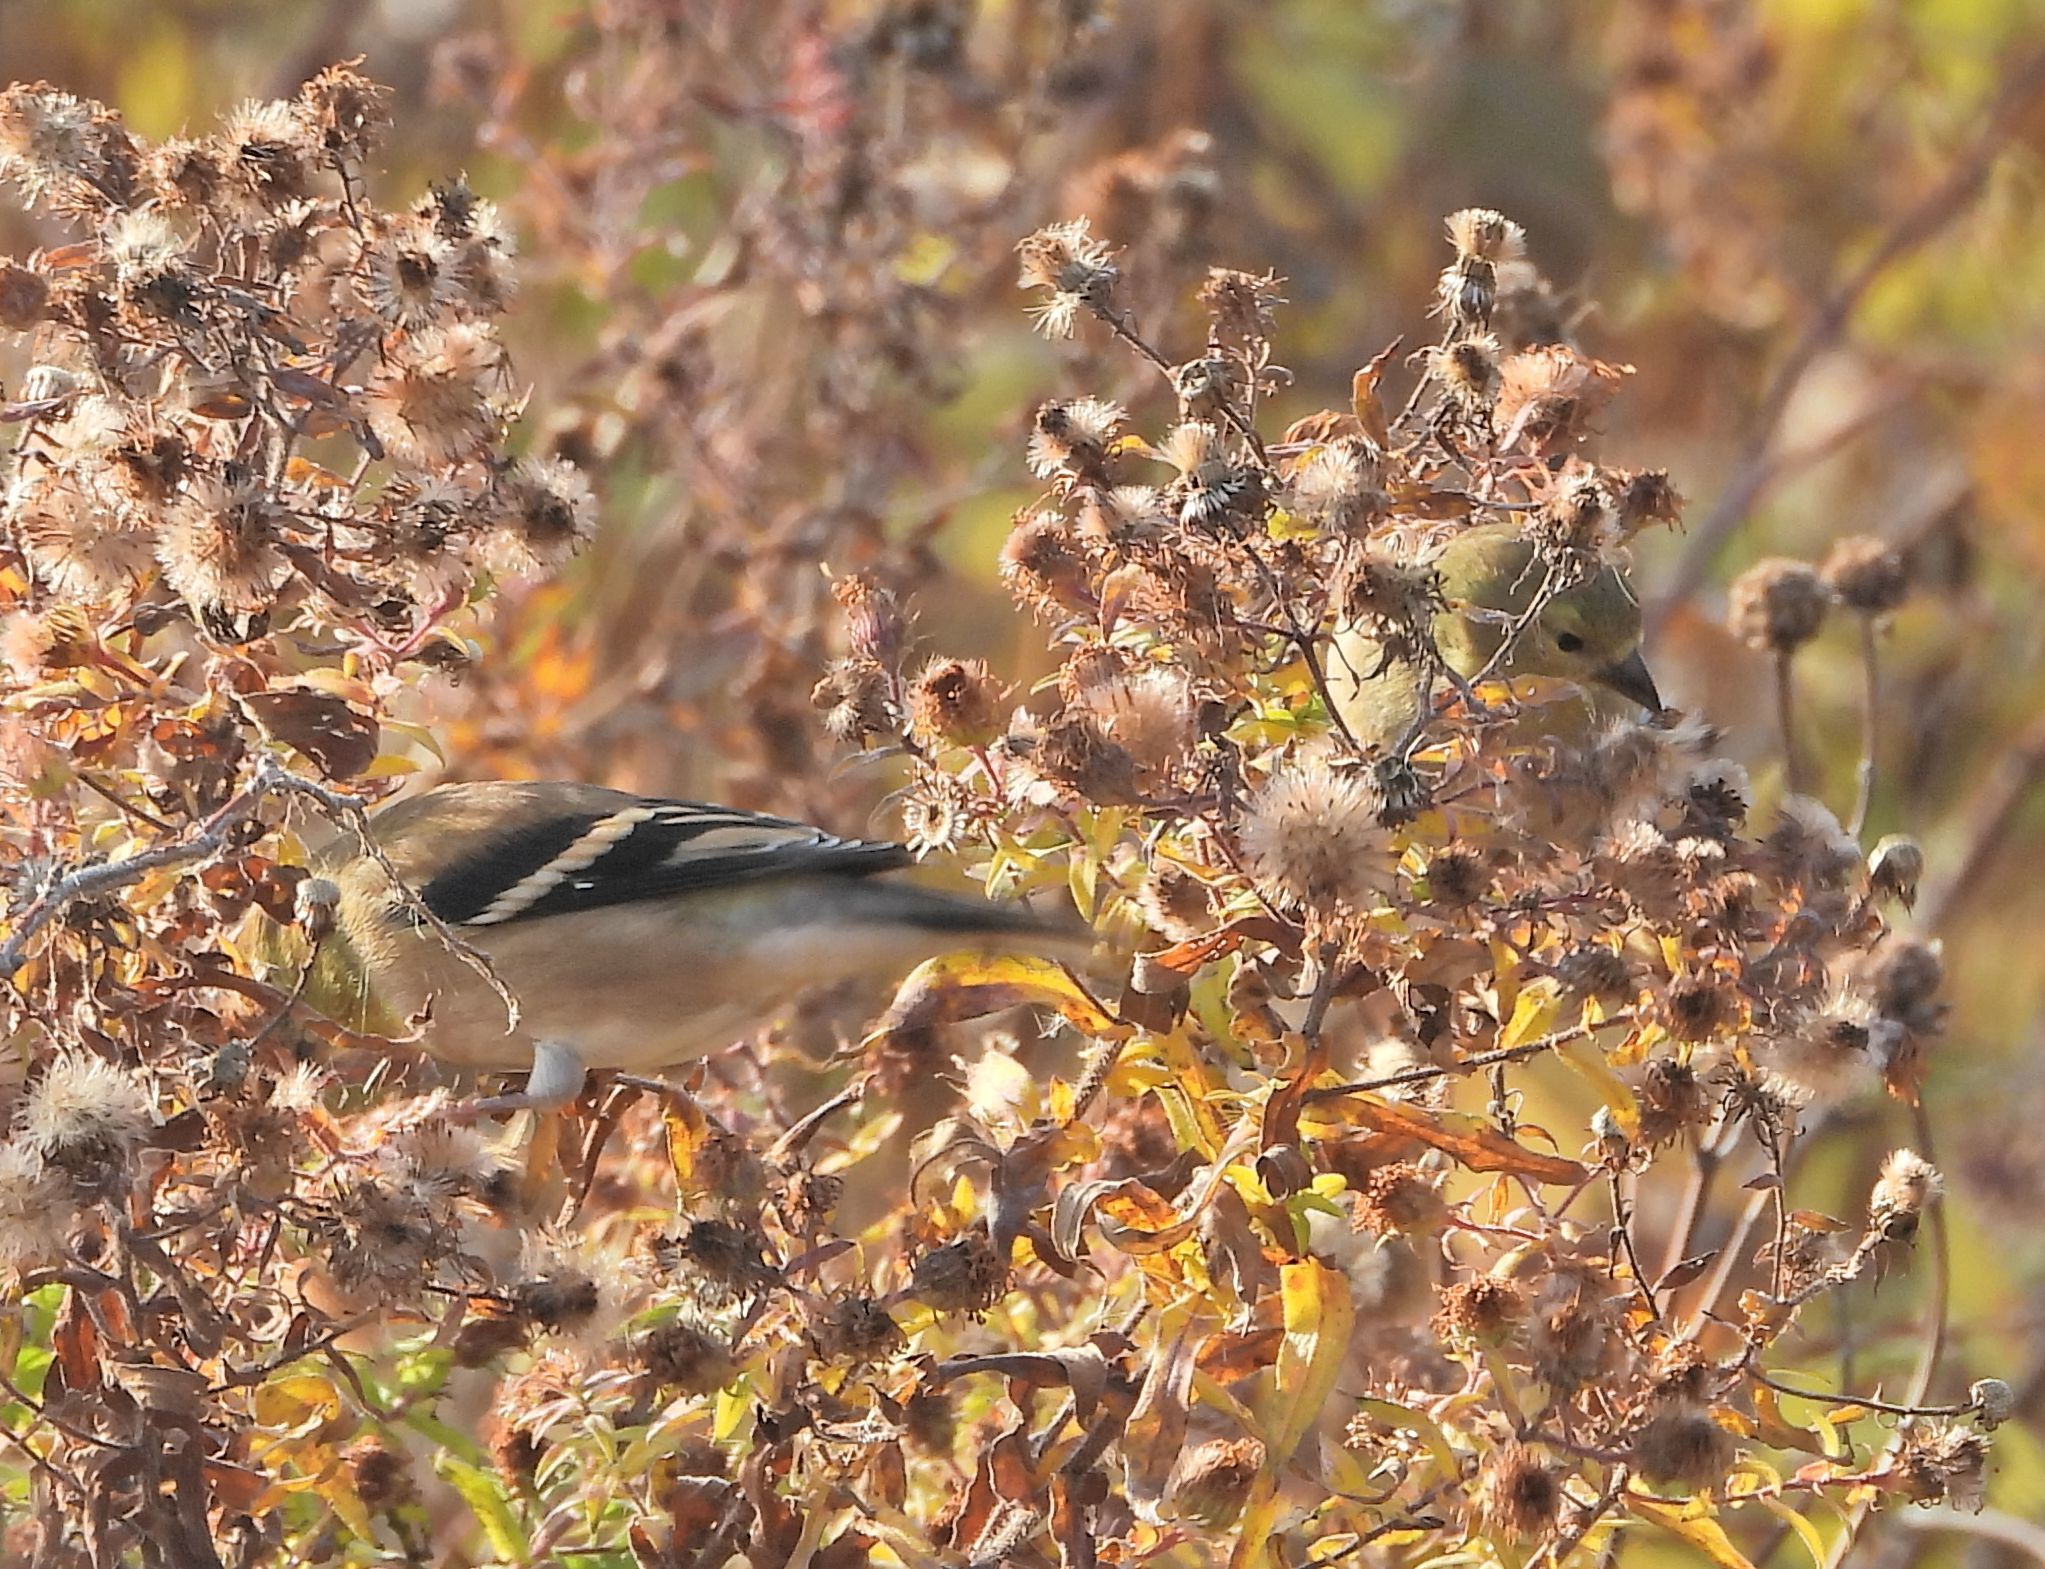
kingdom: Animalia
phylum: Chordata
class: Aves
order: Passeriformes
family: Fringillidae
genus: Spinus
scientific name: Spinus tristis
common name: American goldfinch
